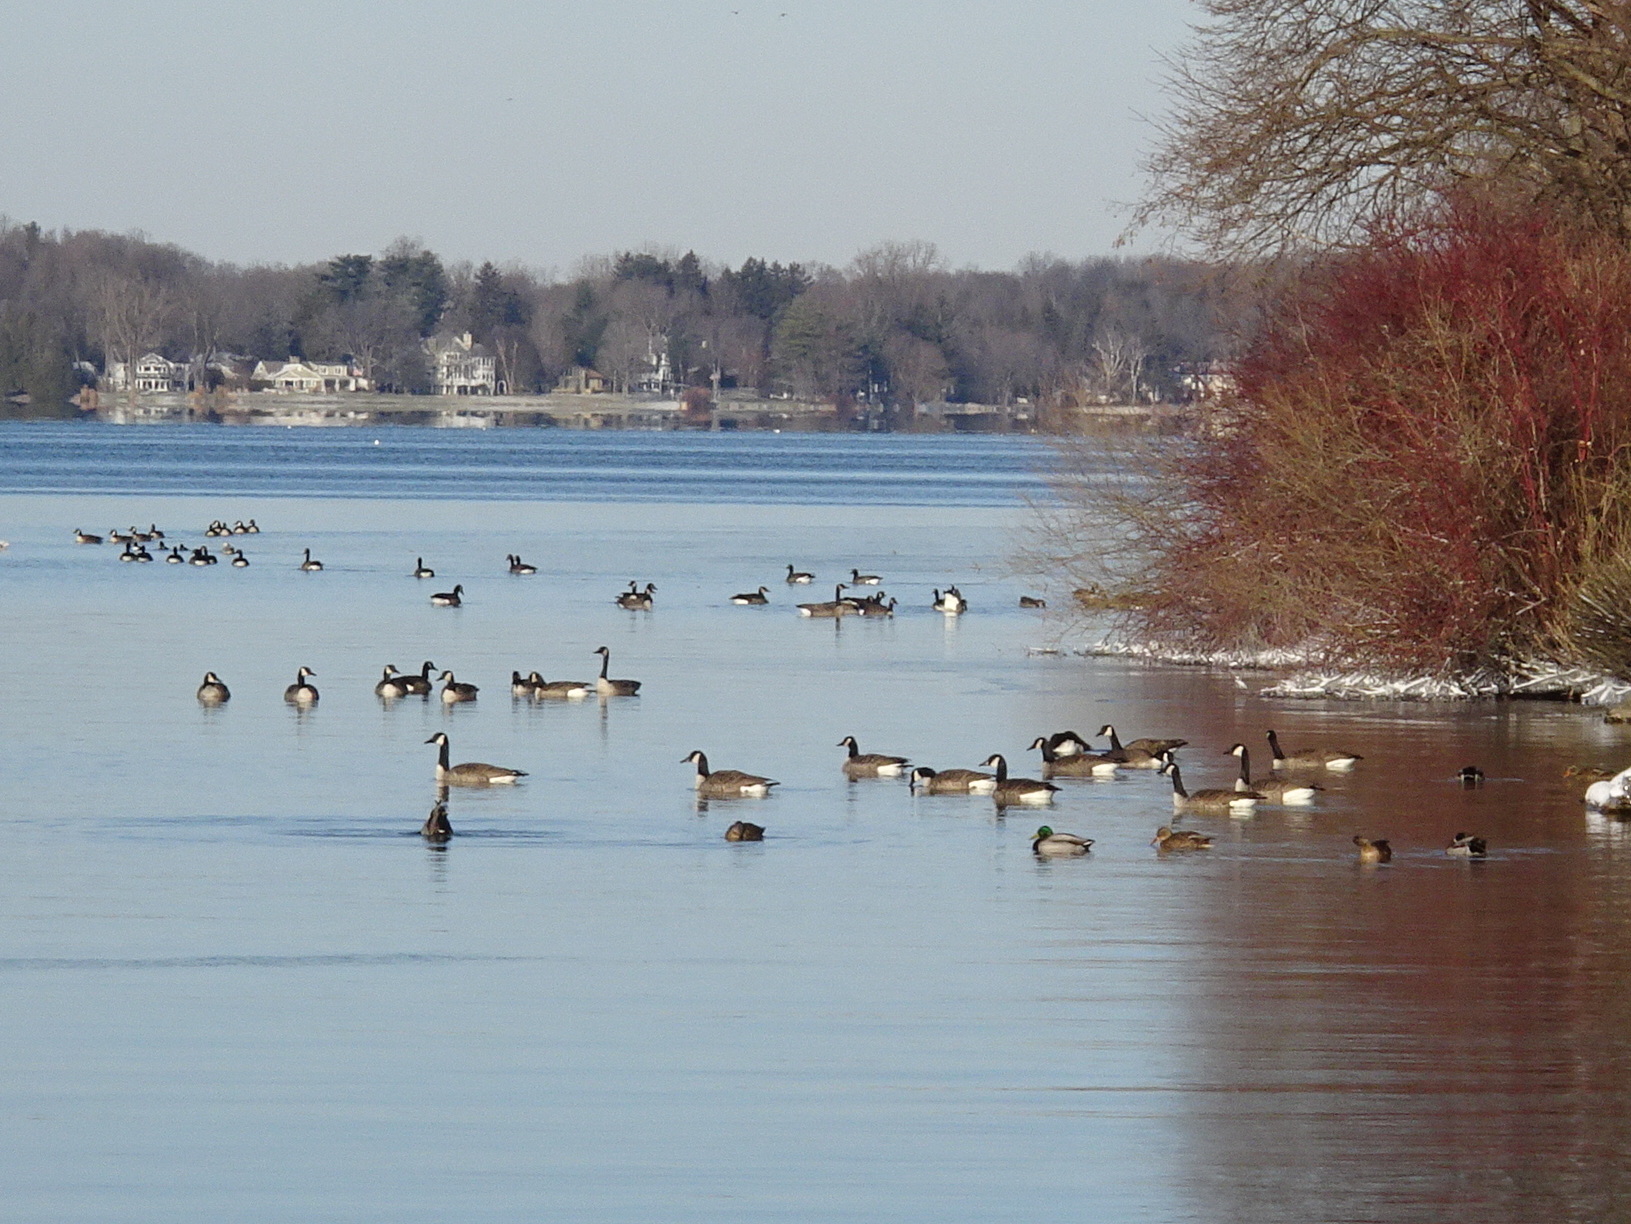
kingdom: Animalia
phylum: Chordata
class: Aves
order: Anseriformes
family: Anatidae
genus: Branta
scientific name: Branta canadensis
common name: Canada goose
